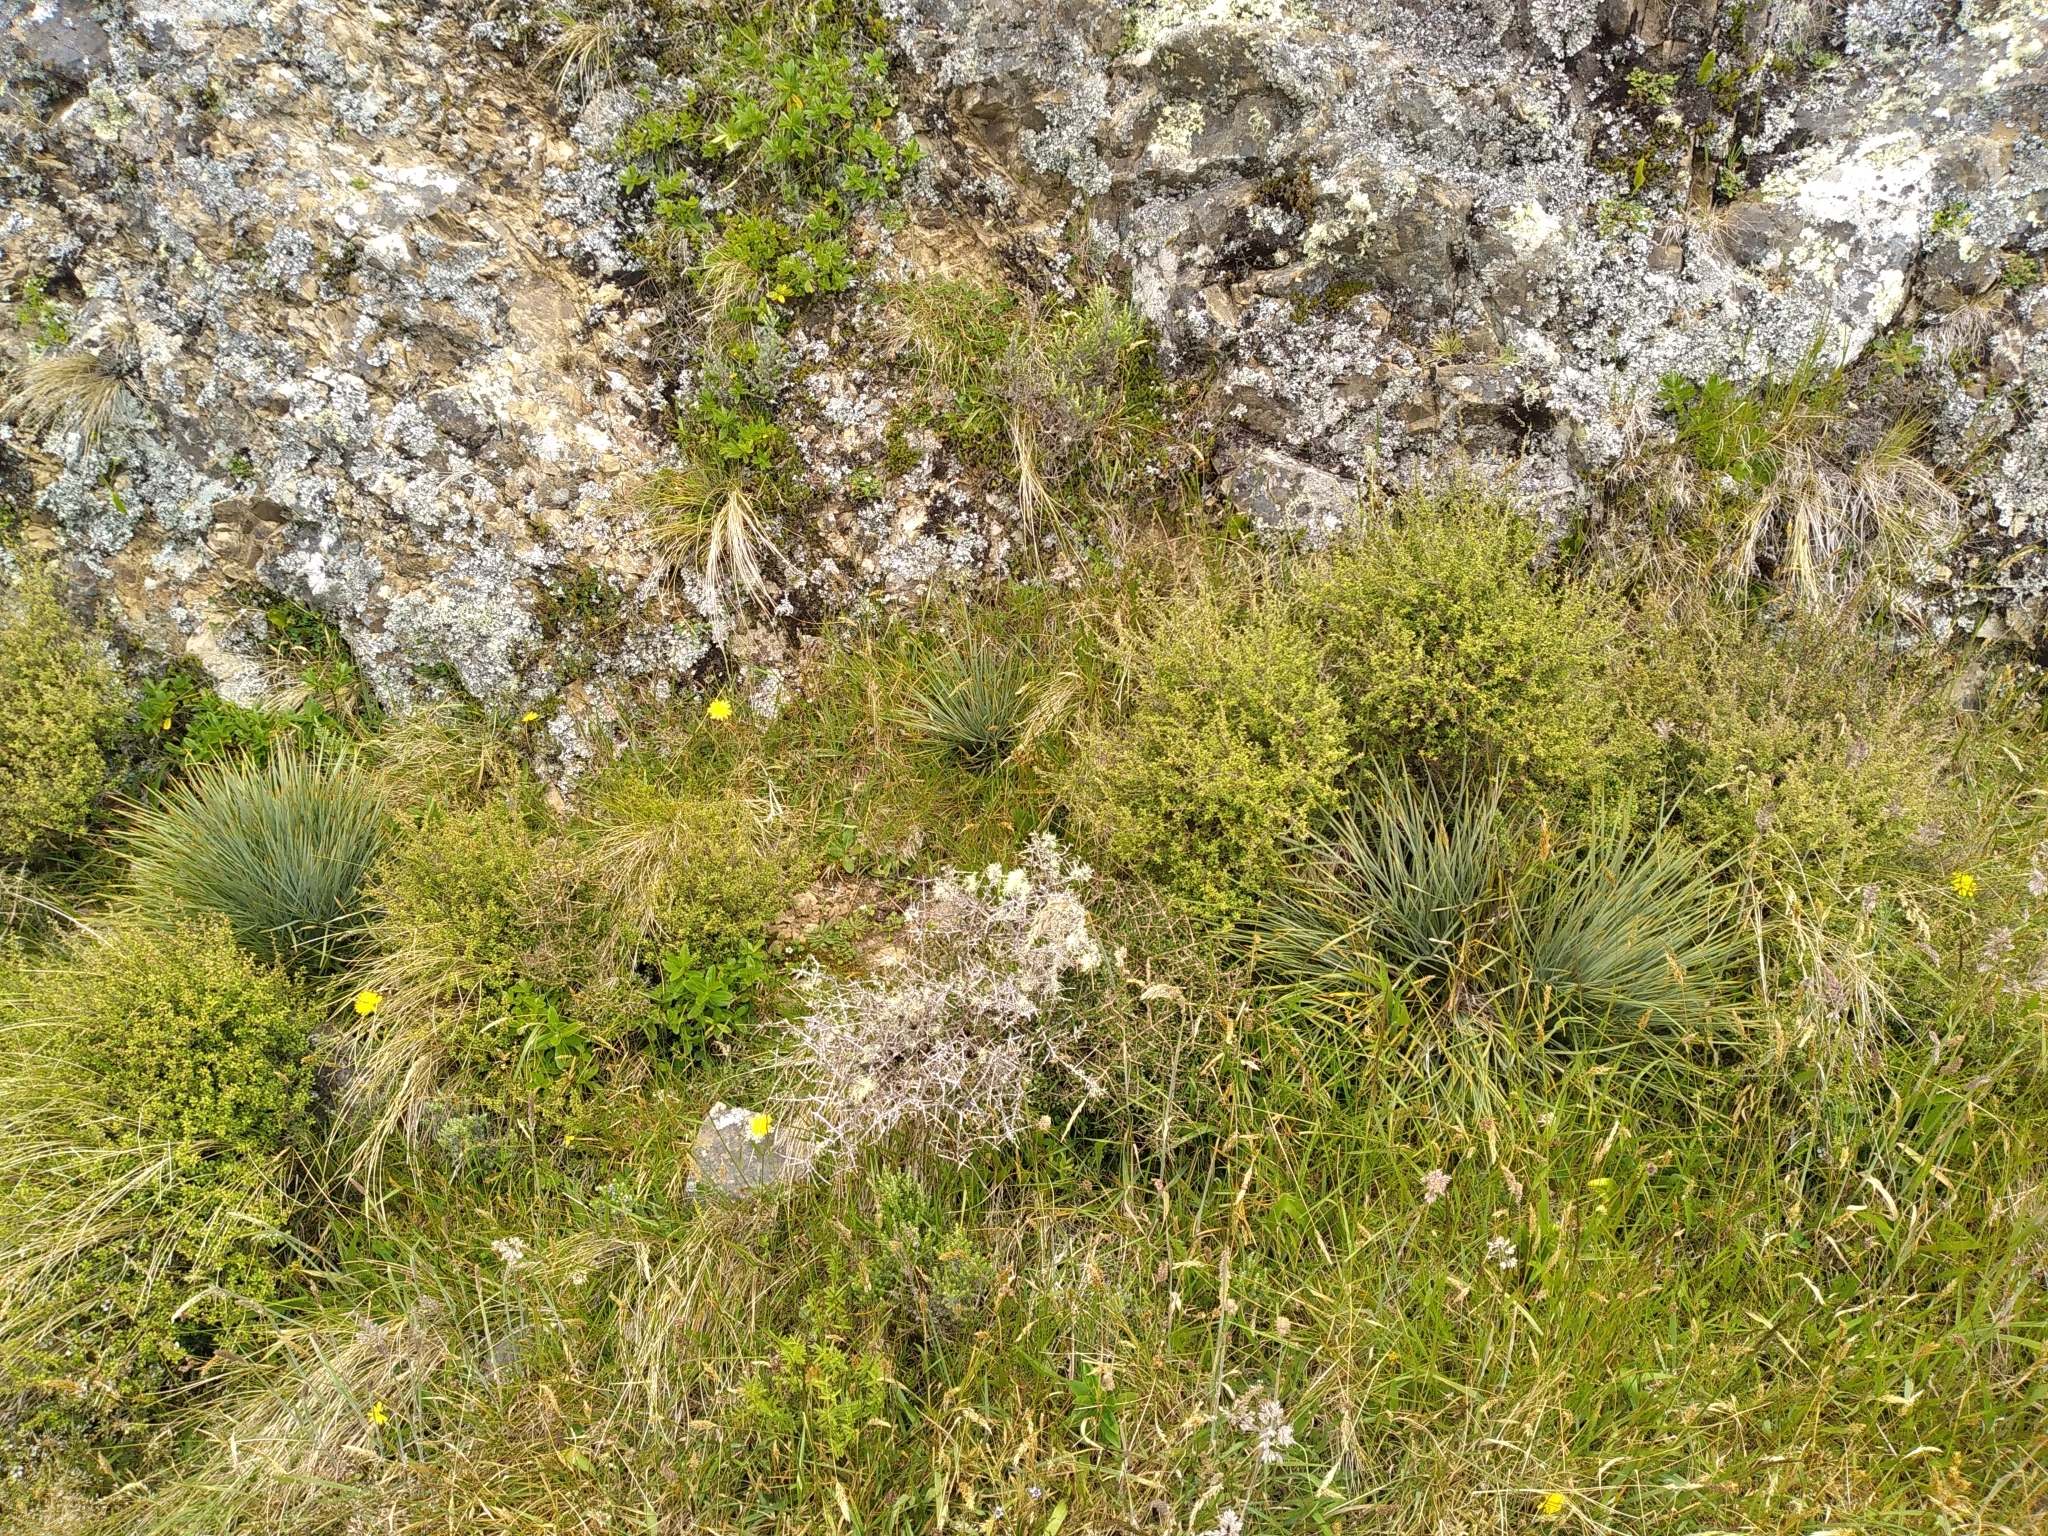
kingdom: Plantae
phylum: Tracheophyta
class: Magnoliopsida
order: Apiales
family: Apiaceae
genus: Aciphylla
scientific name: Aciphylla squarrosa
